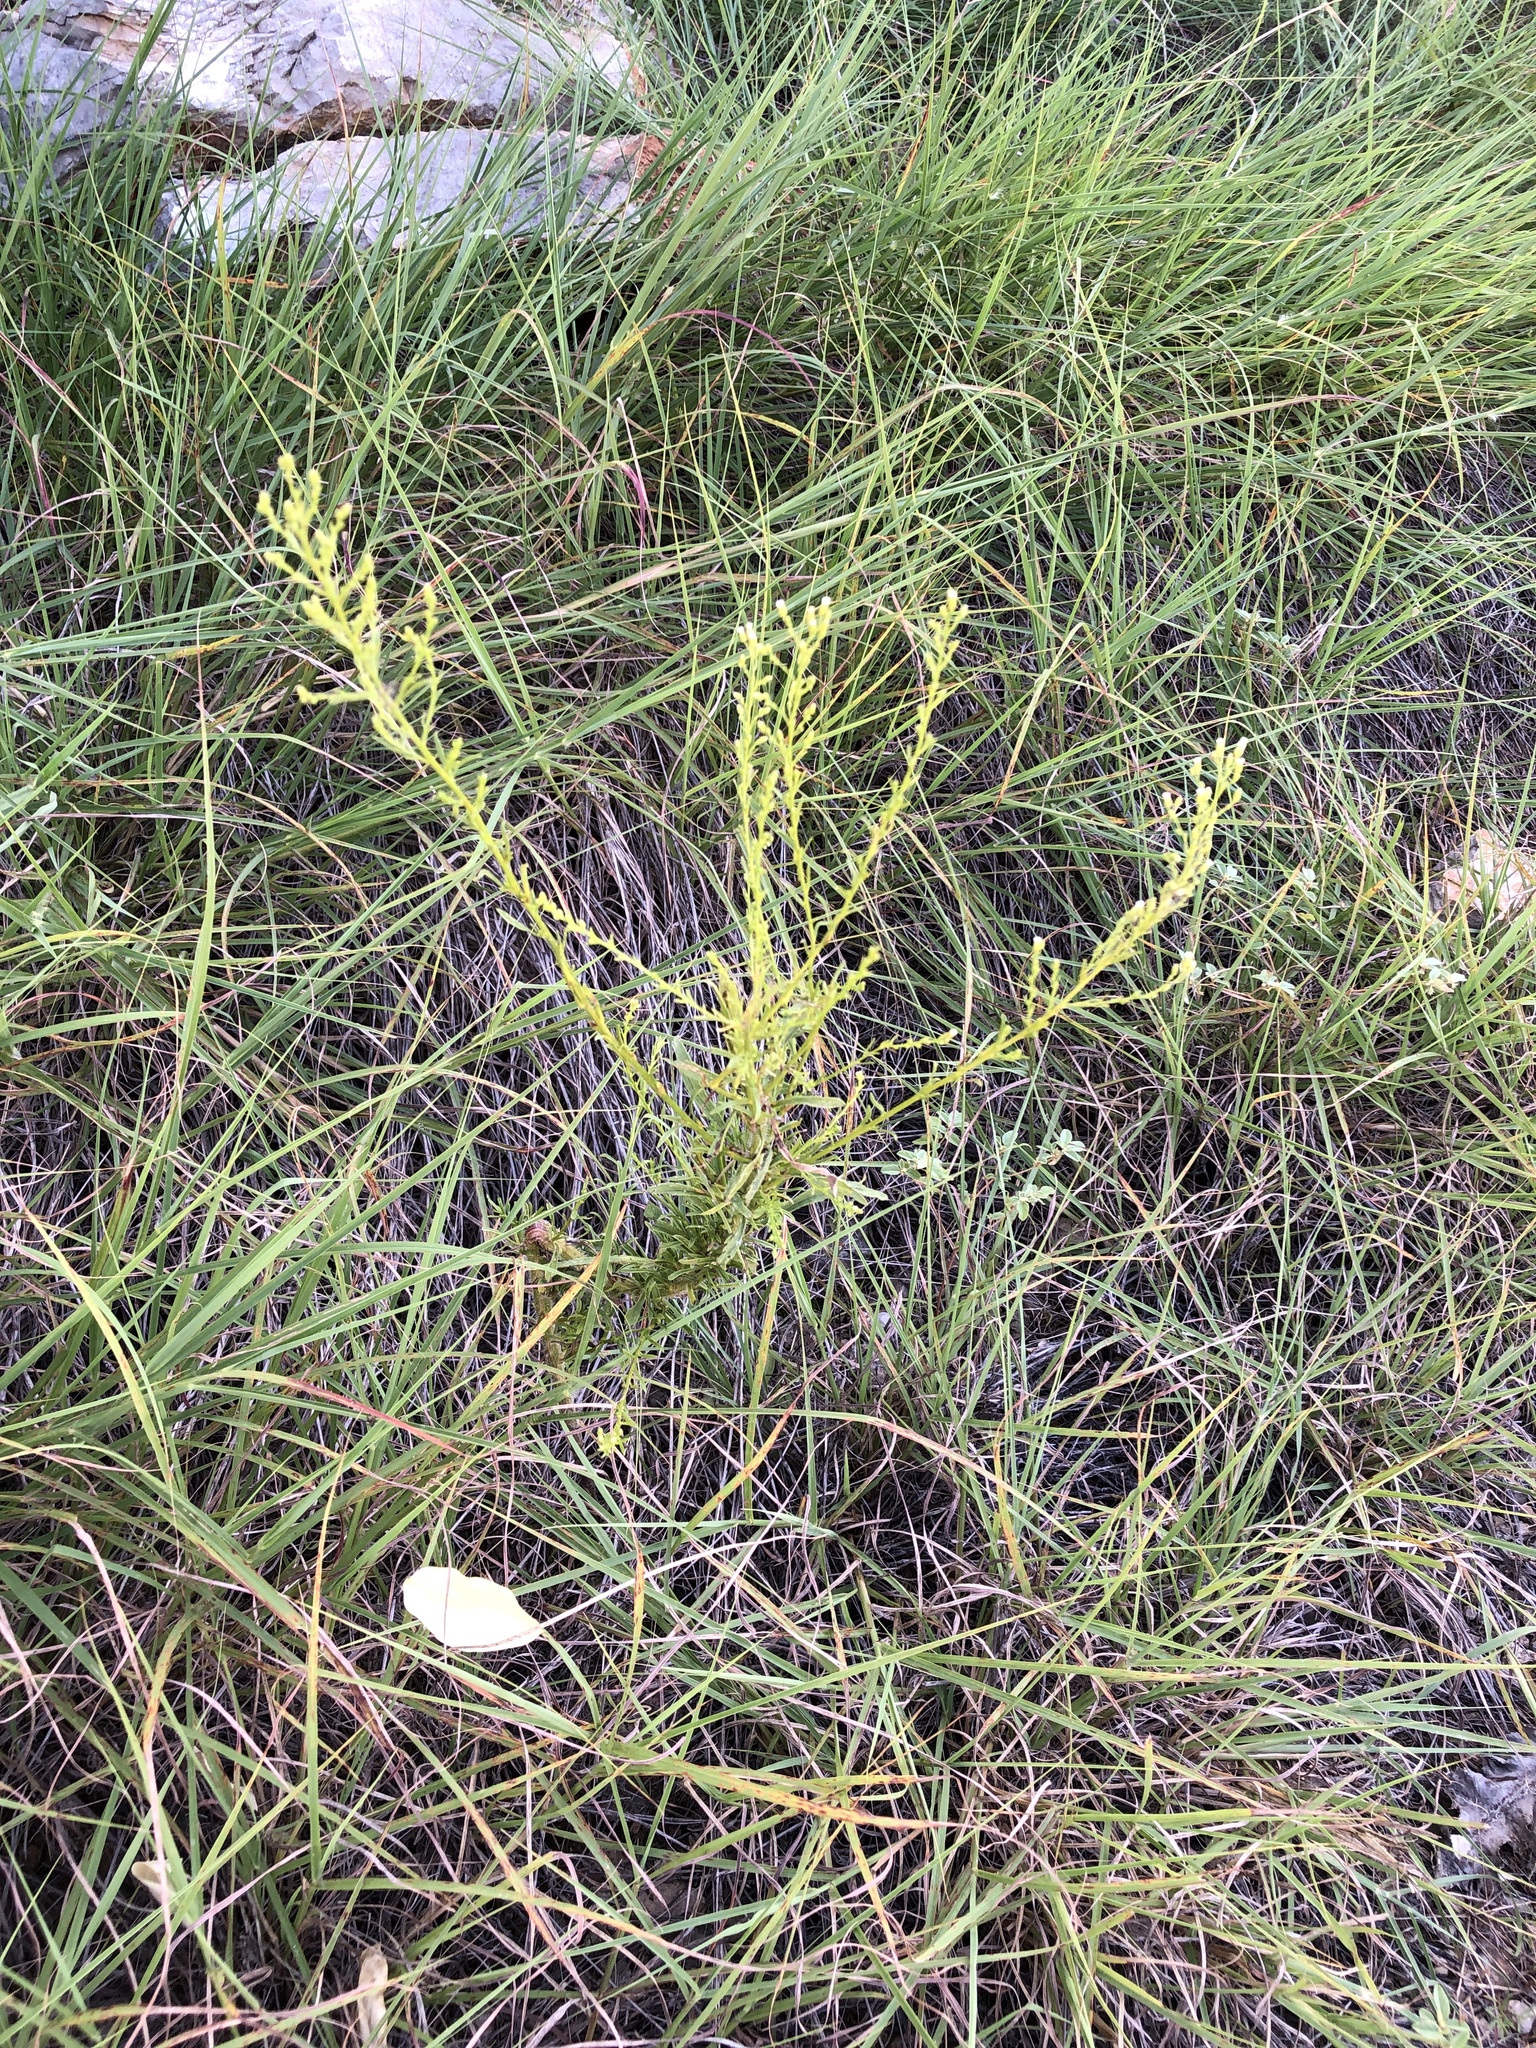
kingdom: Plantae
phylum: Tracheophyta
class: Magnoliopsida
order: Asterales
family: Asteraceae
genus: Erigeron
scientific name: Erigeron canadensis
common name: Canadian fleabane
